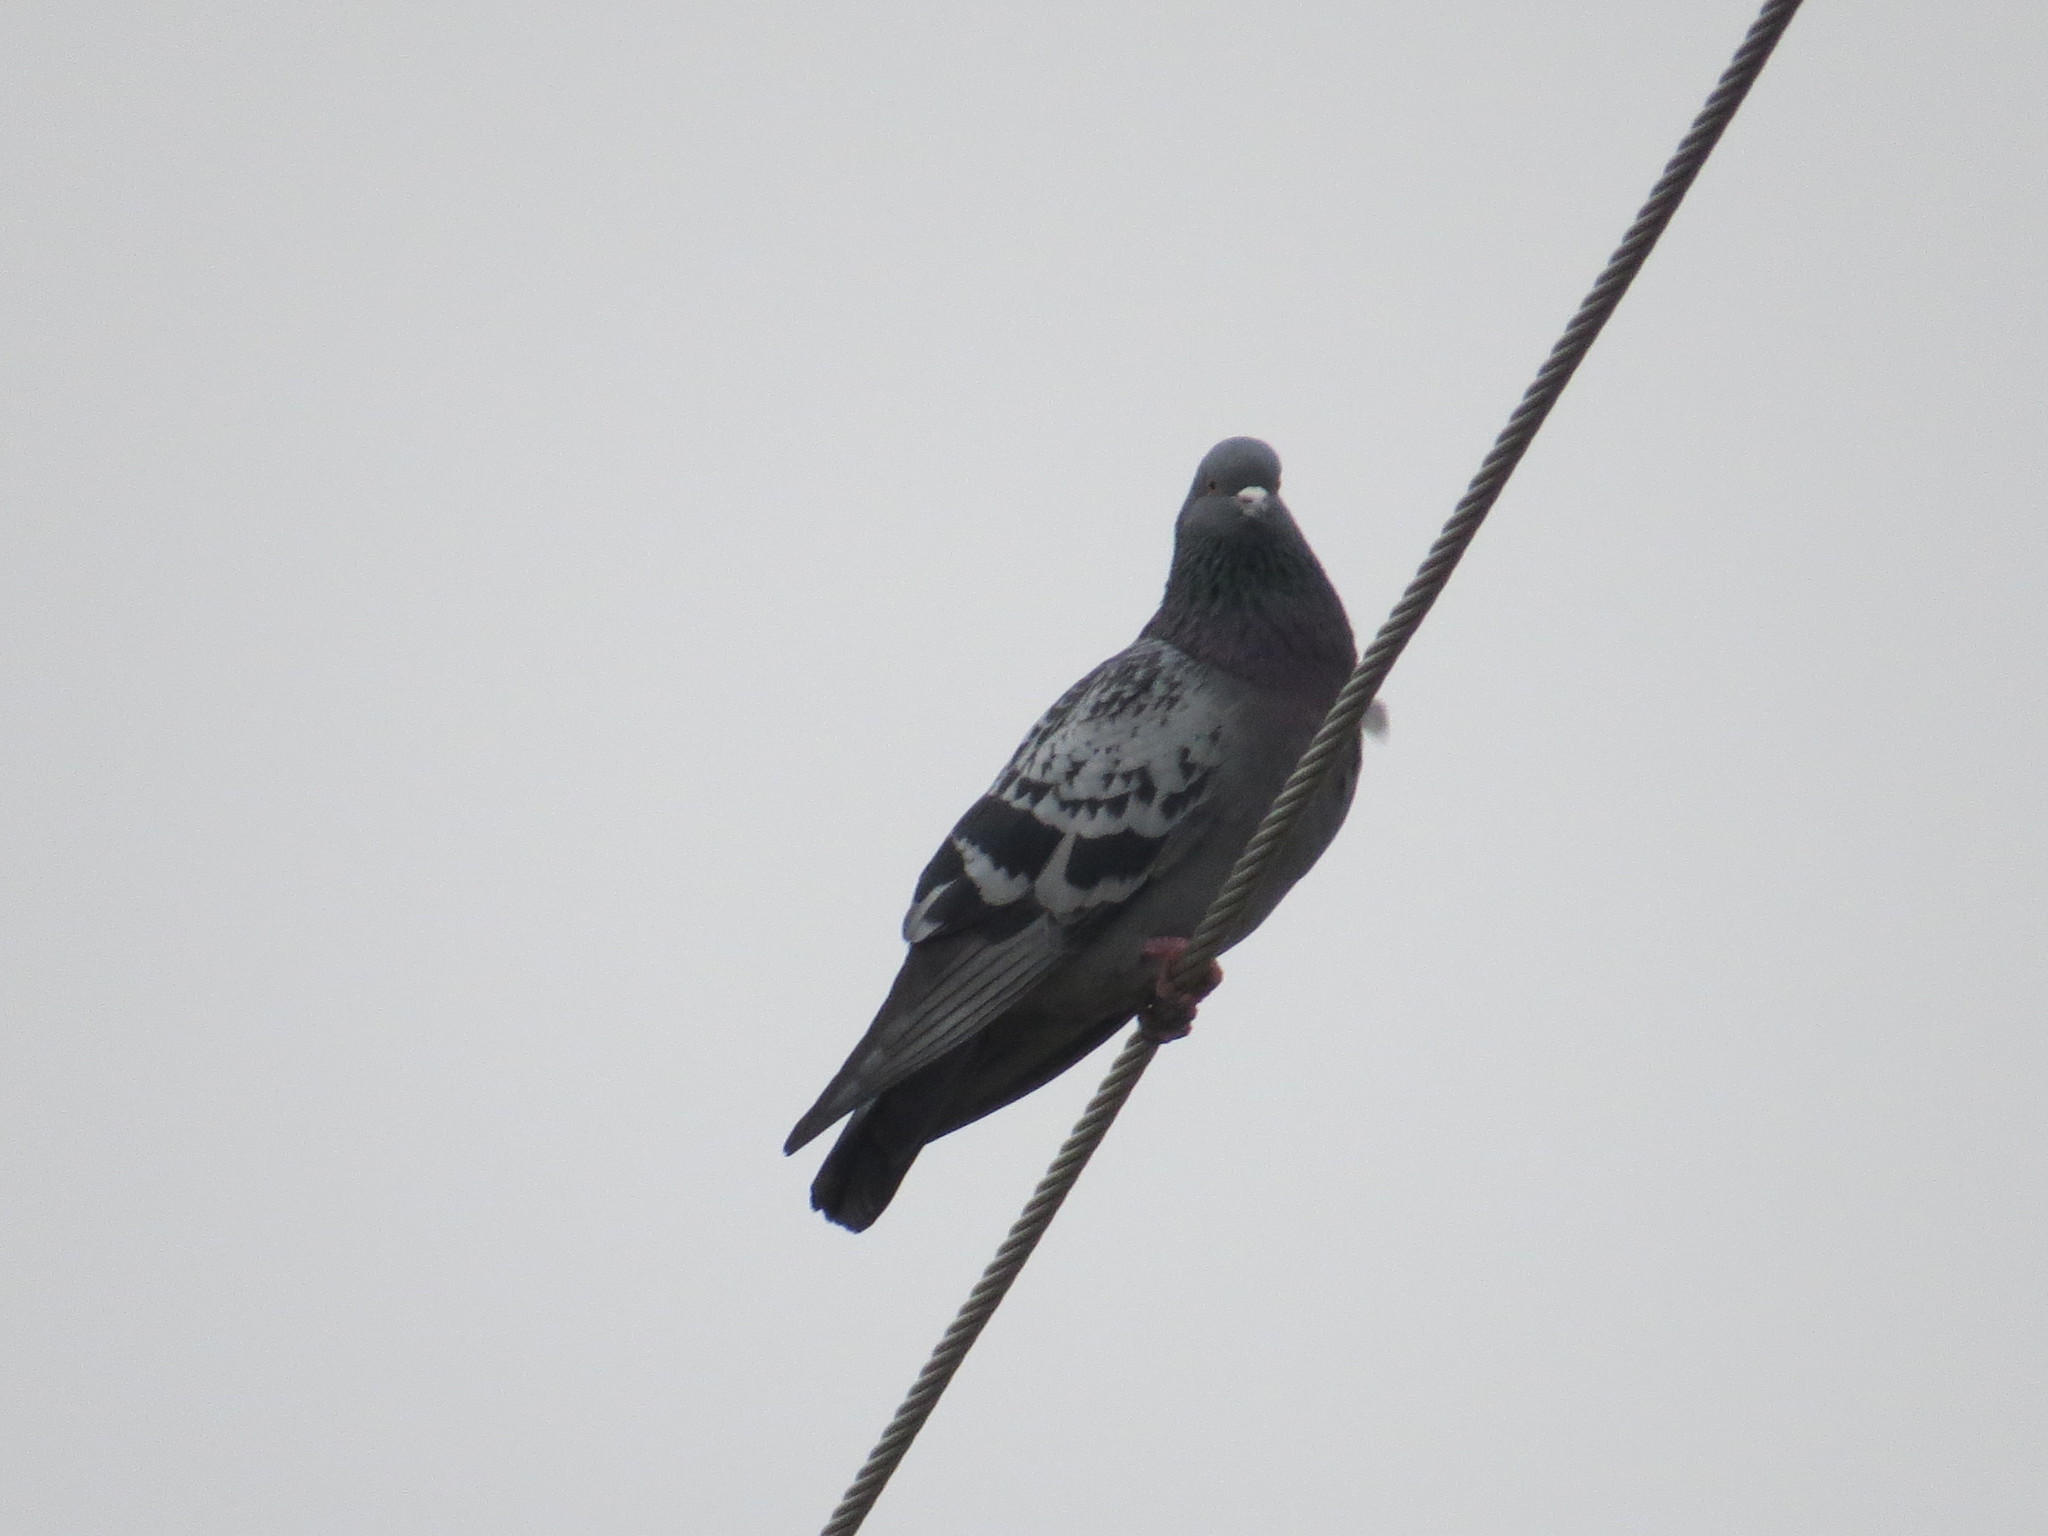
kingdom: Animalia
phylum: Chordata
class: Aves
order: Columbiformes
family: Columbidae
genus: Columba
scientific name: Columba livia
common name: Rock pigeon
